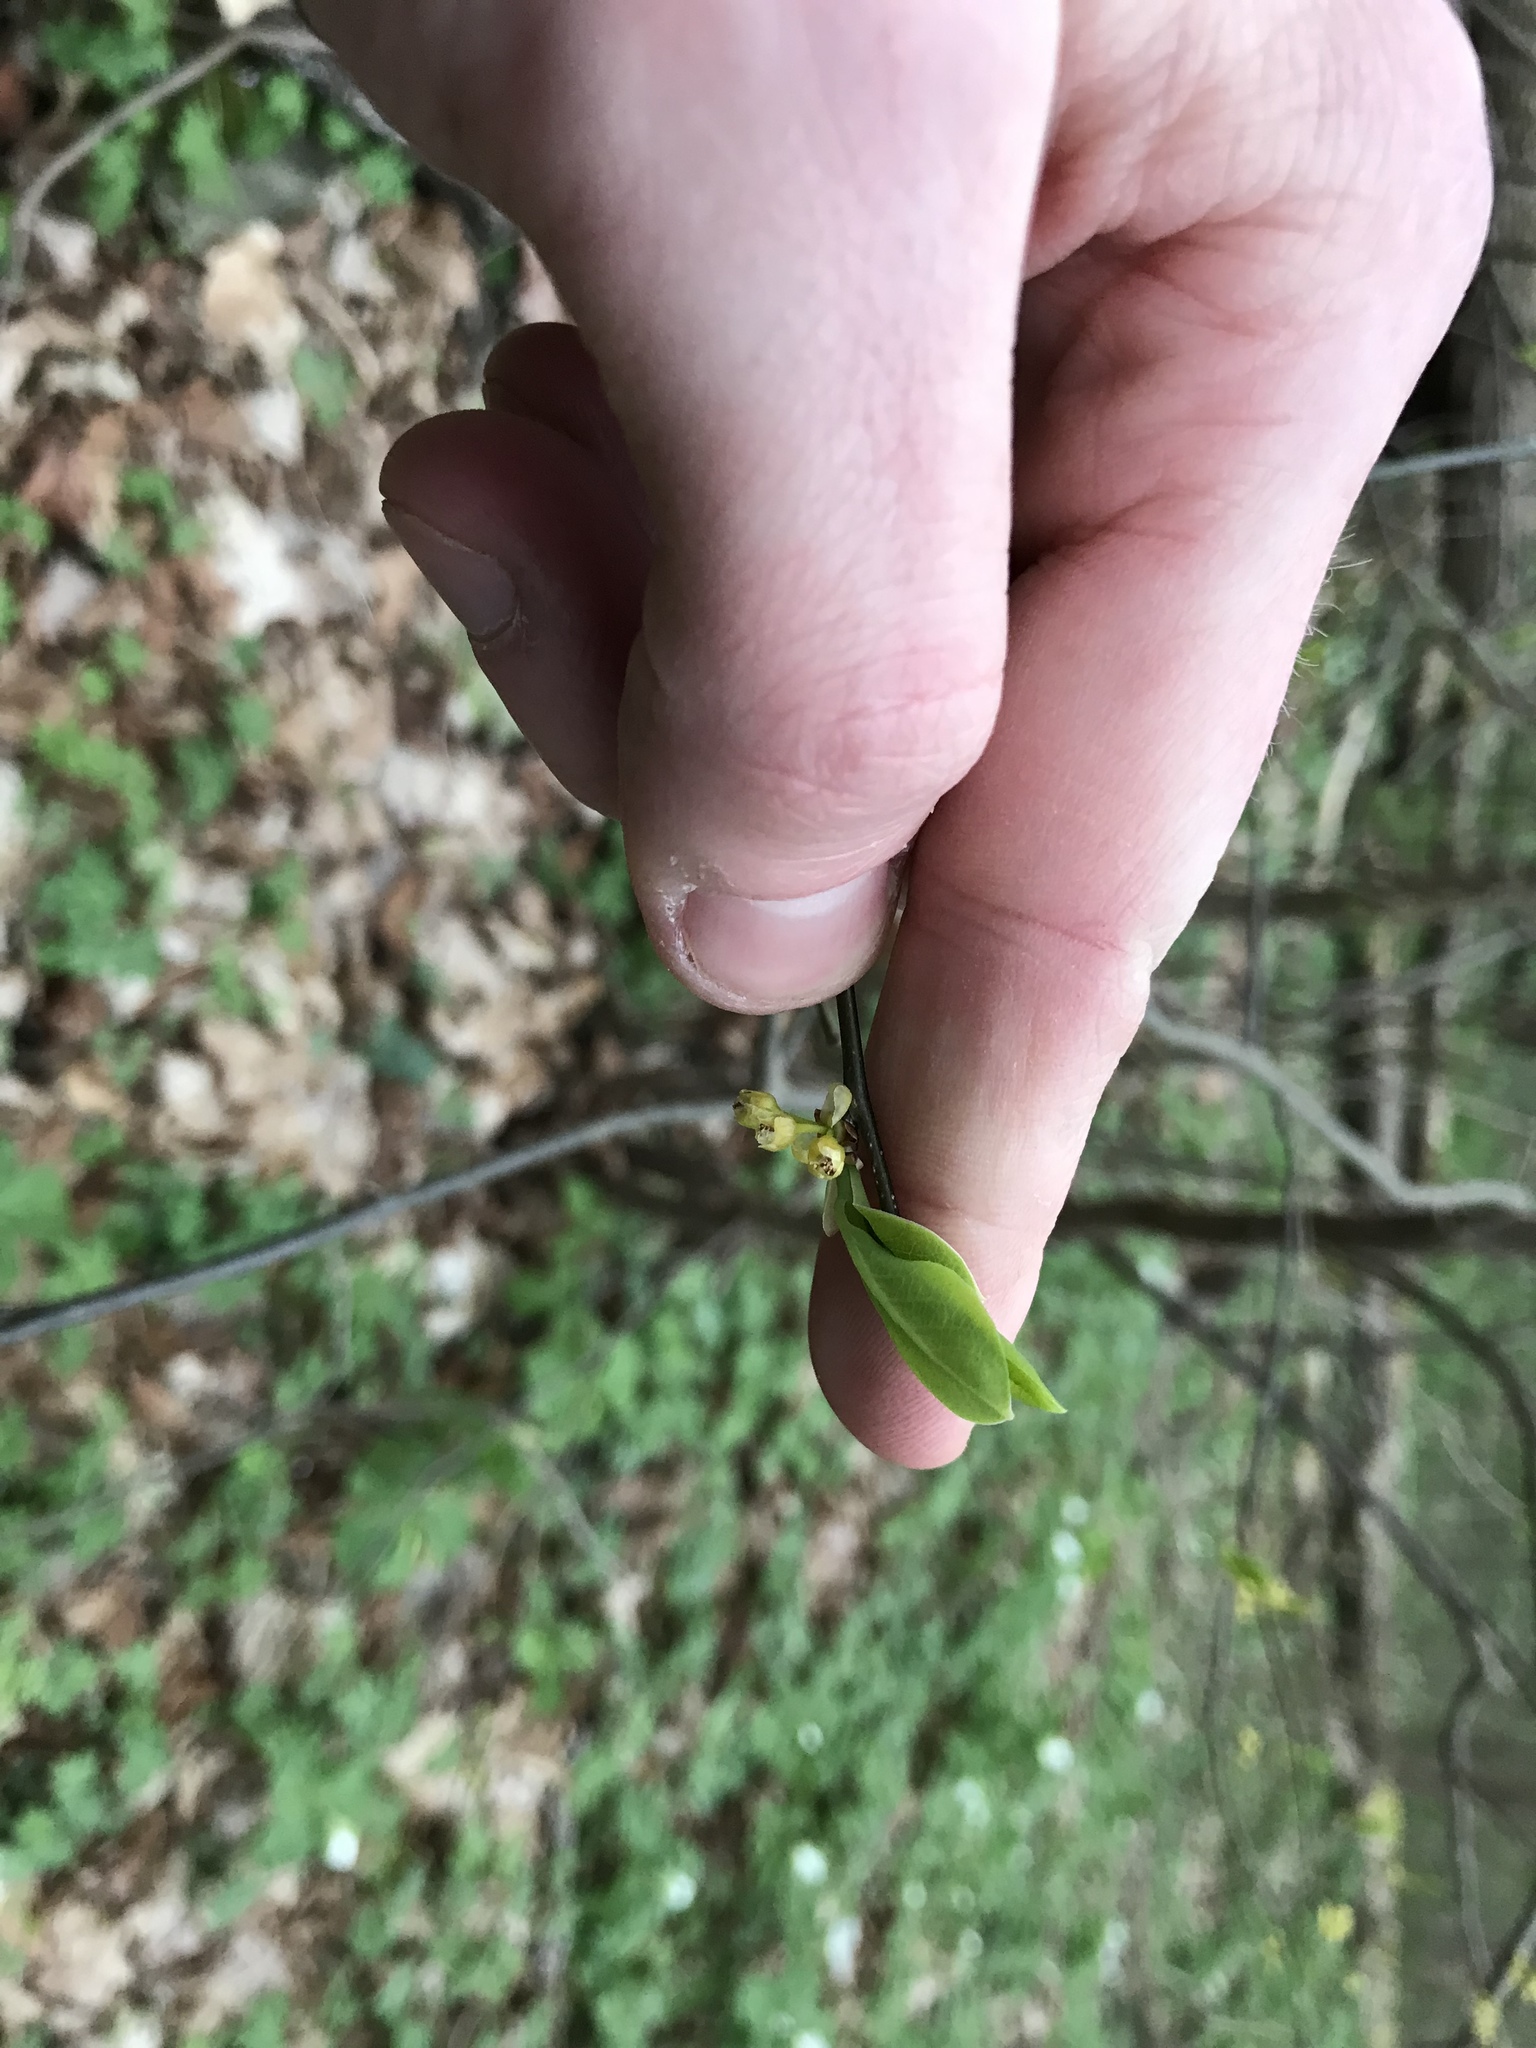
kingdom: Plantae
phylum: Tracheophyta
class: Magnoliopsida
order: Laurales
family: Lauraceae
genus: Lindera
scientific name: Lindera benzoin
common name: Spicebush
